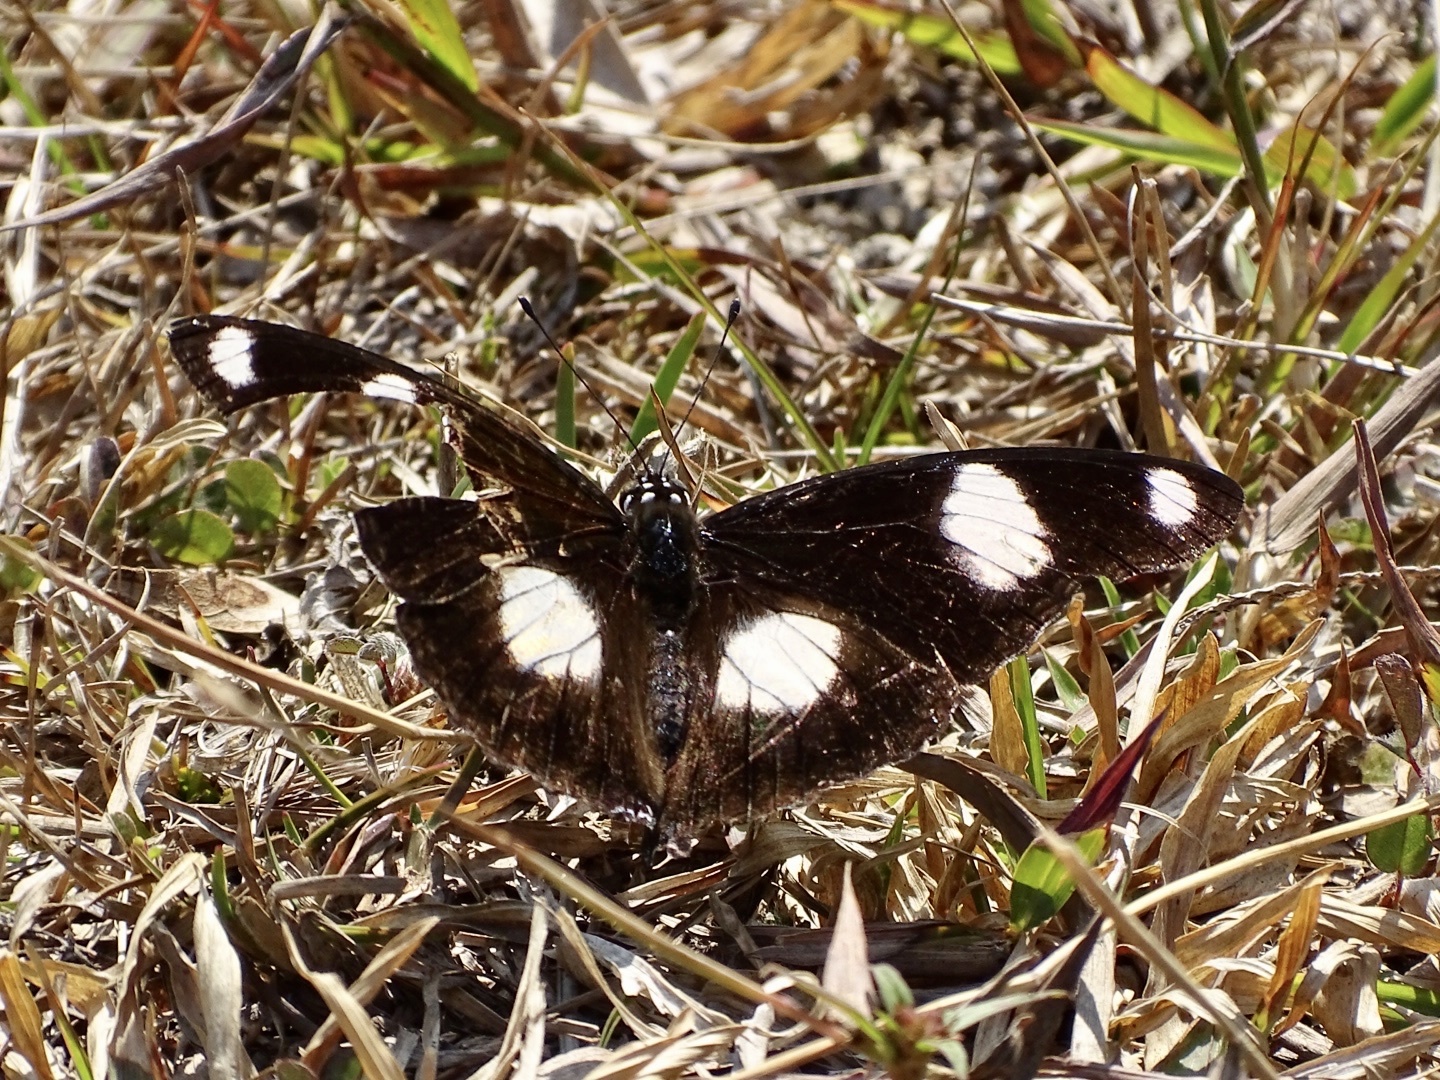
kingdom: Animalia
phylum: Arthropoda
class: Insecta
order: Lepidoptera
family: Nymphalidae
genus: Hypolimnas
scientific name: Hypolimnas misippus
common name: False plain tiger
